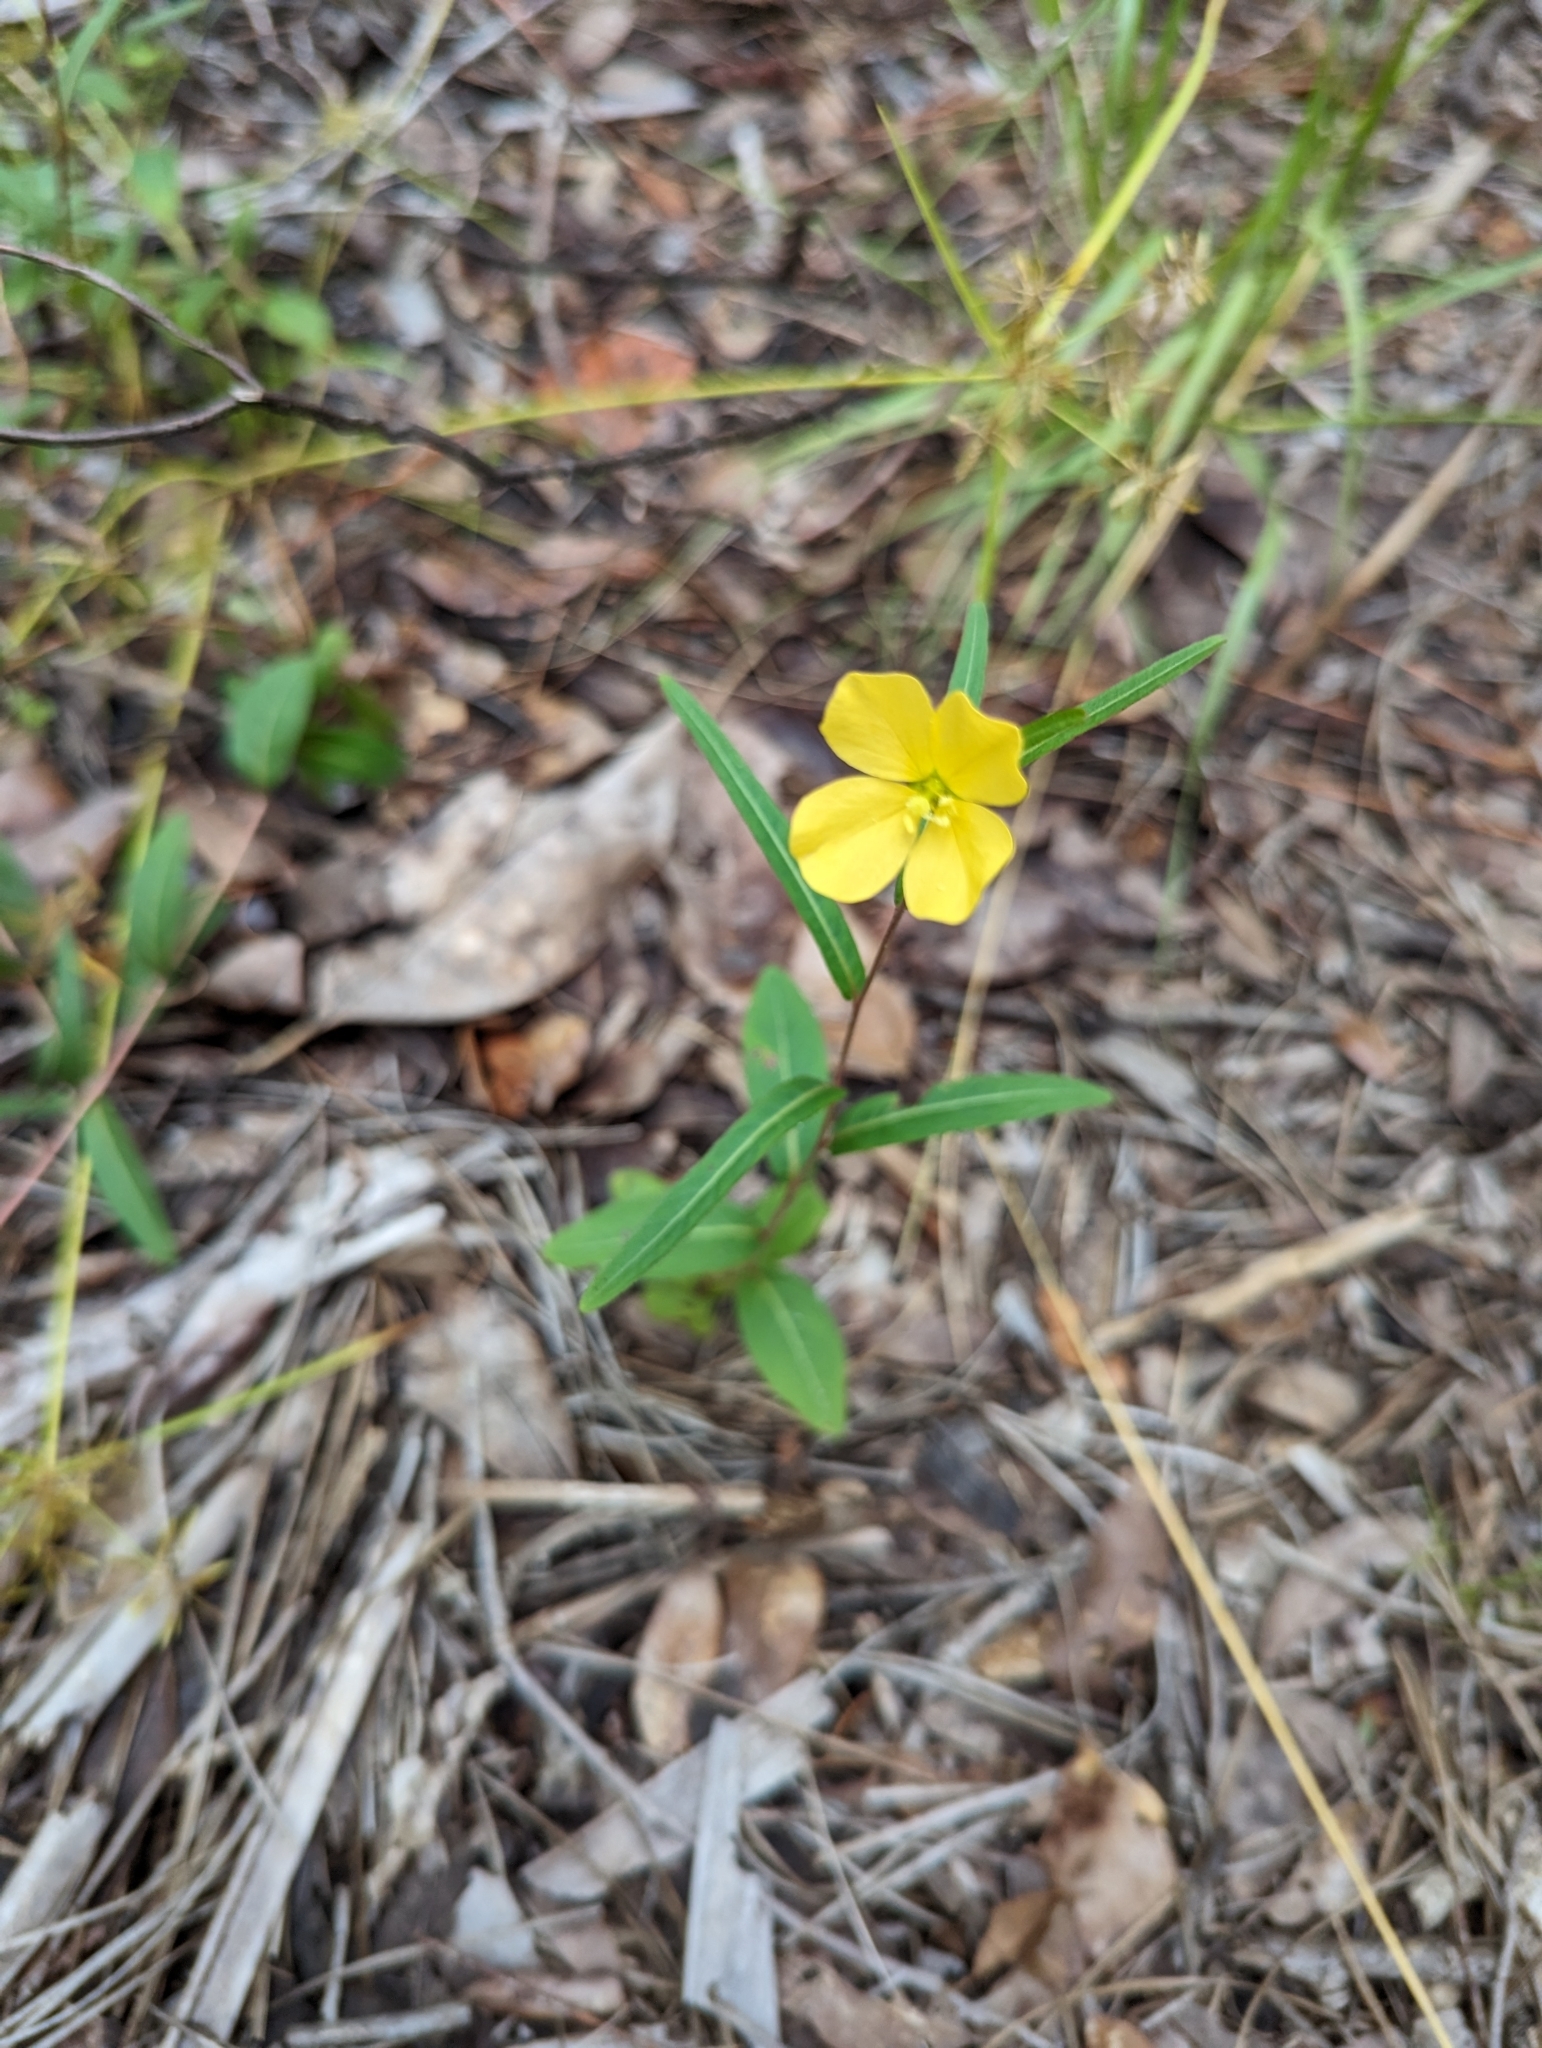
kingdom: Plantae
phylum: Tracheophyta
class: Magnoliopsida
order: Myrtales
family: Onagraceae
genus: Ludwigia
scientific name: Ludwigia maritima
